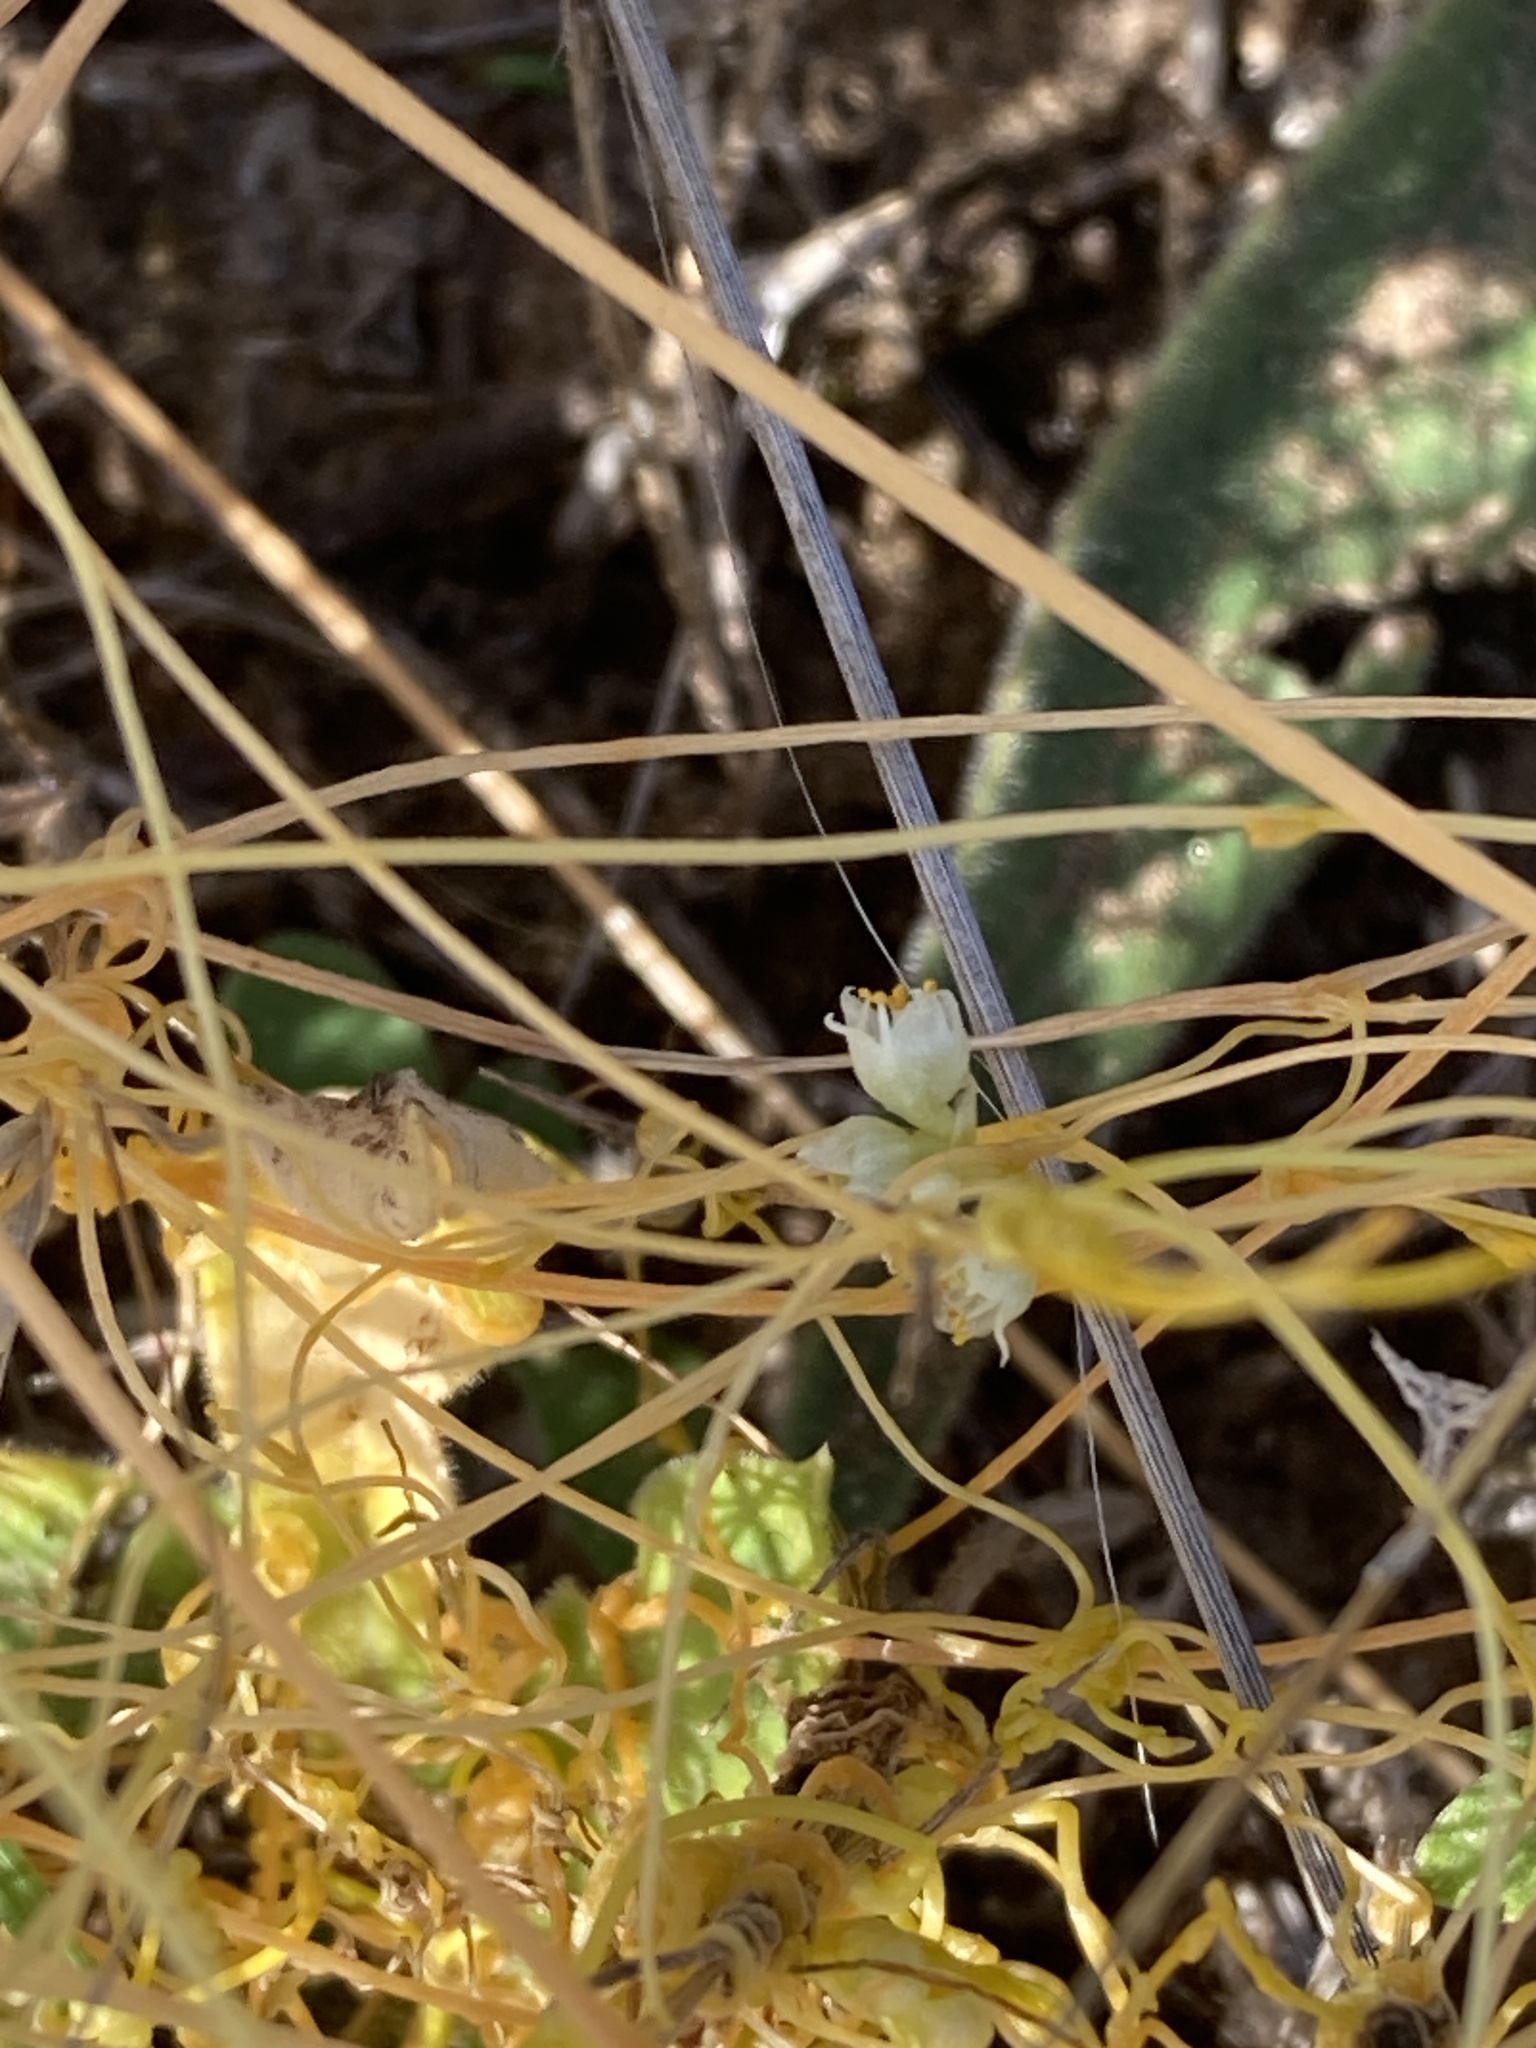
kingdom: Plantae
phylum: Tracheophyta
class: Magnoliopsida
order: Solanales
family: Convolvulaceae
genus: Cuscuta
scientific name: Cuscuta campestris
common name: Yellow dodder
